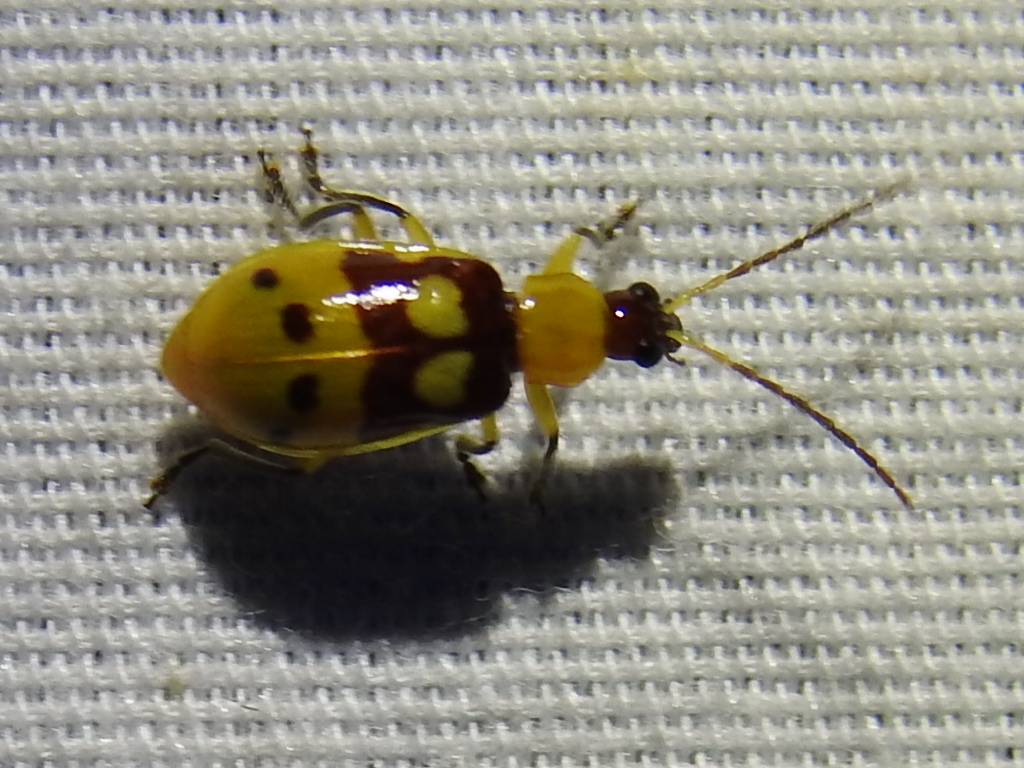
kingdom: Animalia
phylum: Arthropoda
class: Insecta
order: Coleoptera
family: Chrysomelidae
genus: Paranapiacaba
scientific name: Paranapiacaba connexa
